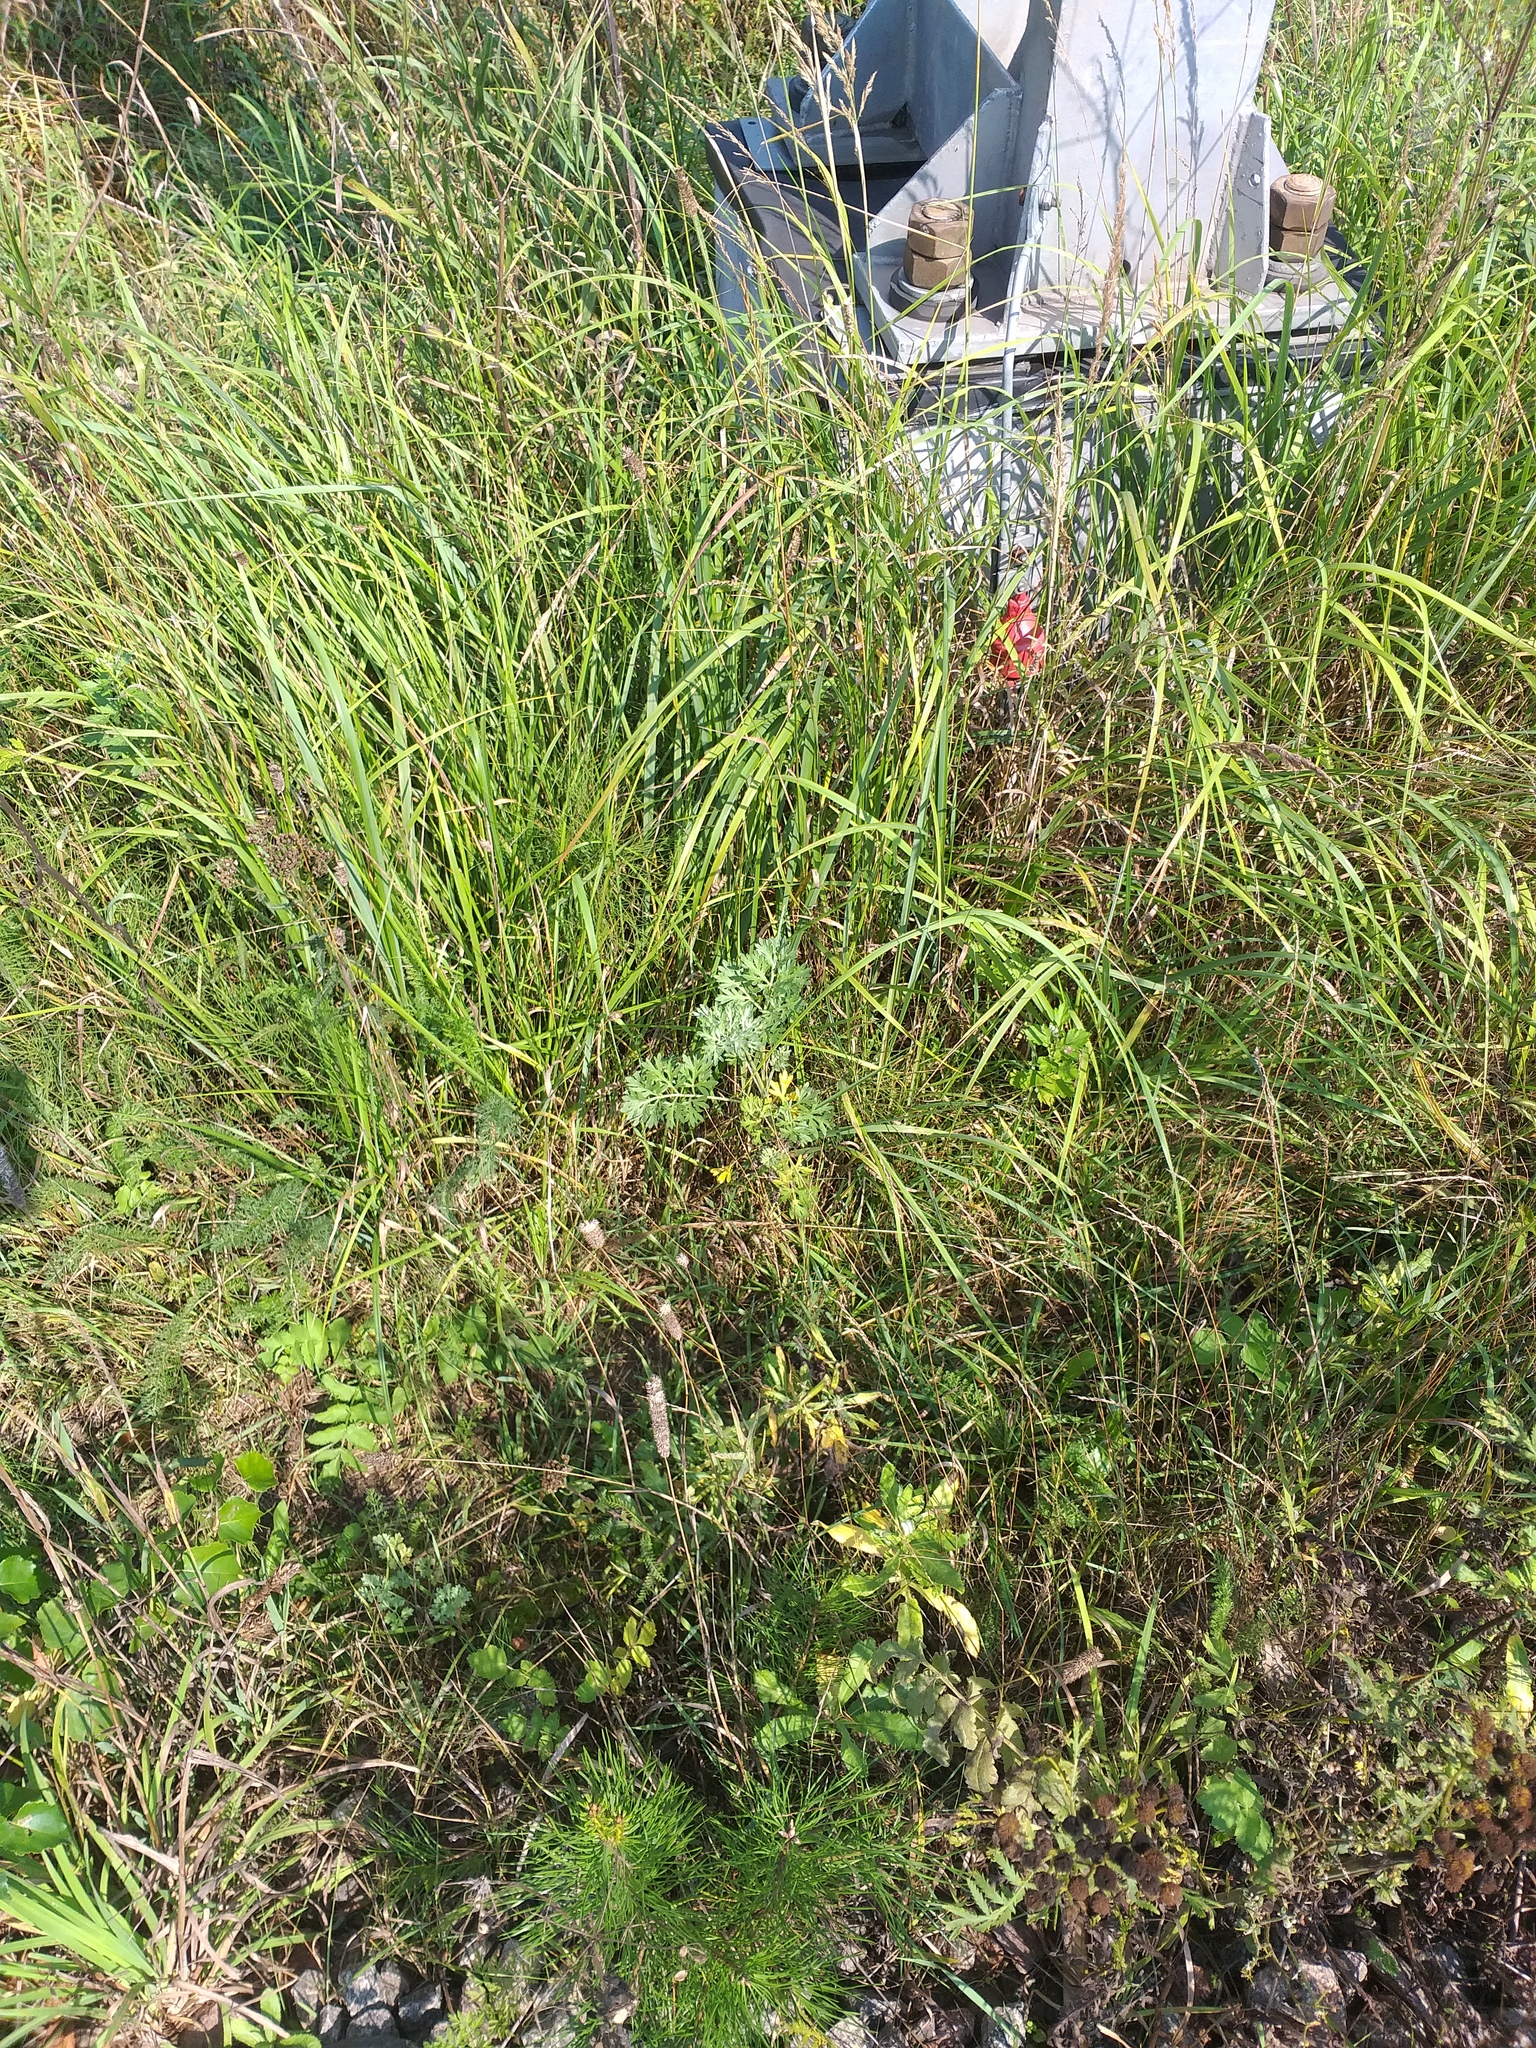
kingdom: Plantae
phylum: Tracheophyta
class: Magnoliopsida
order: Asterales
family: Asteraceae
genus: Artemisia
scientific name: Artemisia absinthium
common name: Wormwood
